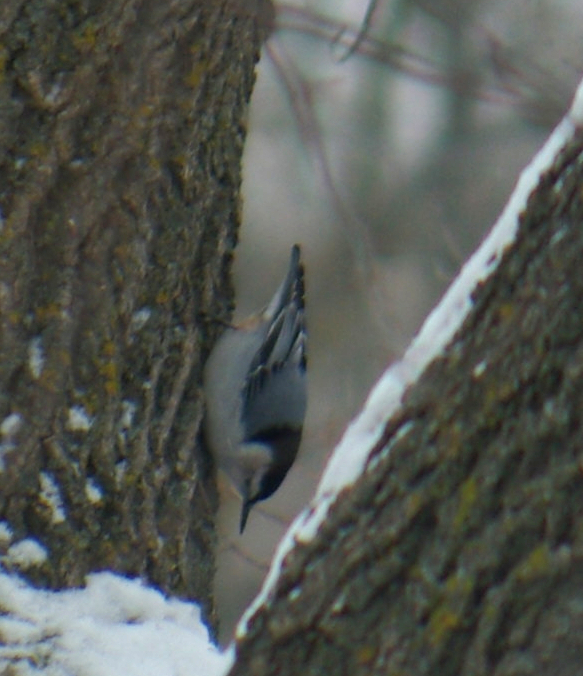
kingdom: Animalia
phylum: Chordata
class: Aves
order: Passeriformes
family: Sittidae
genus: Sitta
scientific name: Sitta carolinensis
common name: White-breasted nuthatch
